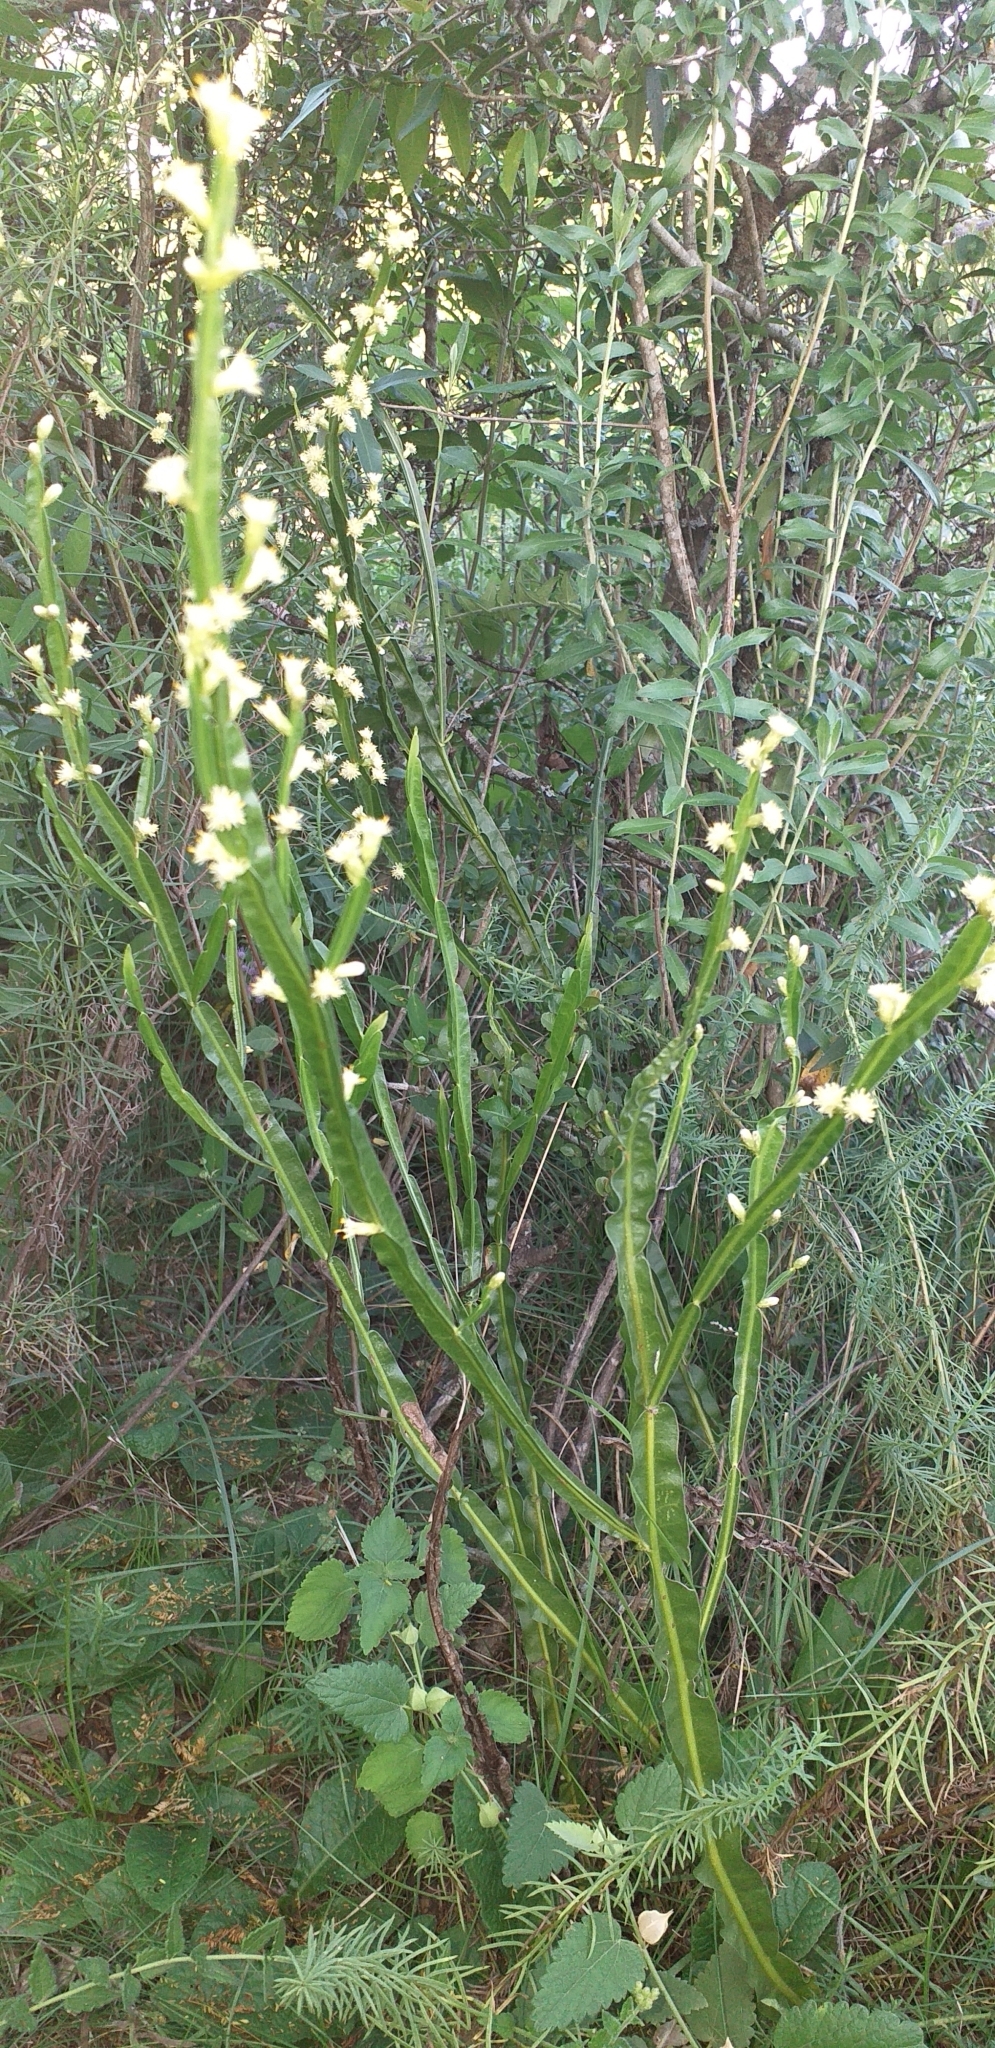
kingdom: Plantae
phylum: Tracheophyta
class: Magnoliopsida
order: Asterales
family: Asteraceae
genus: Baccharis
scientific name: Baccharis trimera
